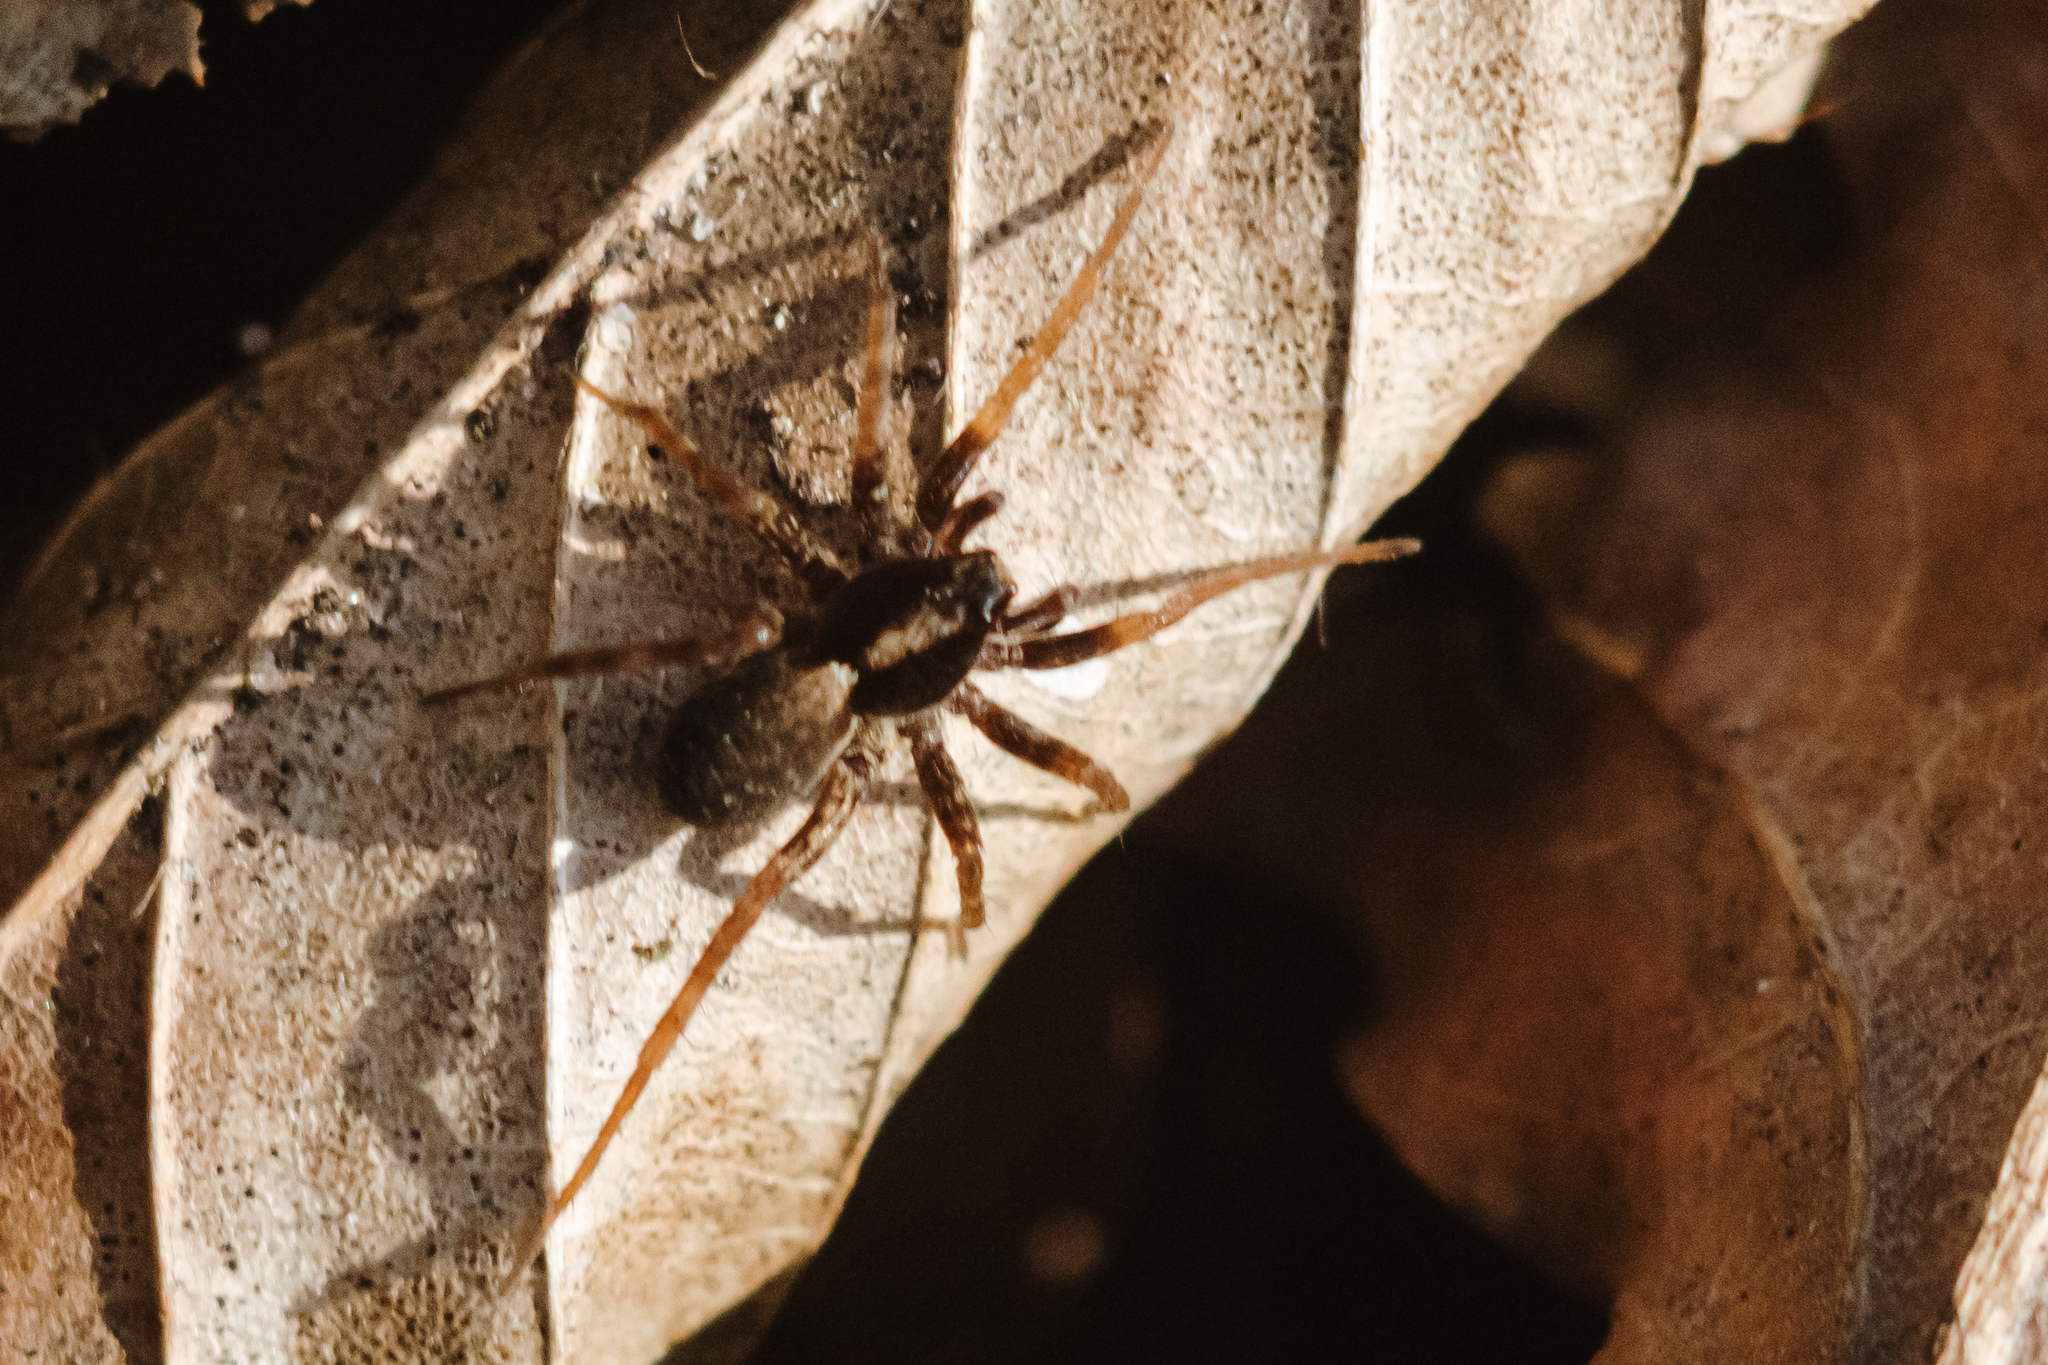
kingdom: Animalia
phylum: Arthropoda
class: Arachnida
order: Araneae
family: Lycosidae
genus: Pardosa
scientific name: Pardosa
